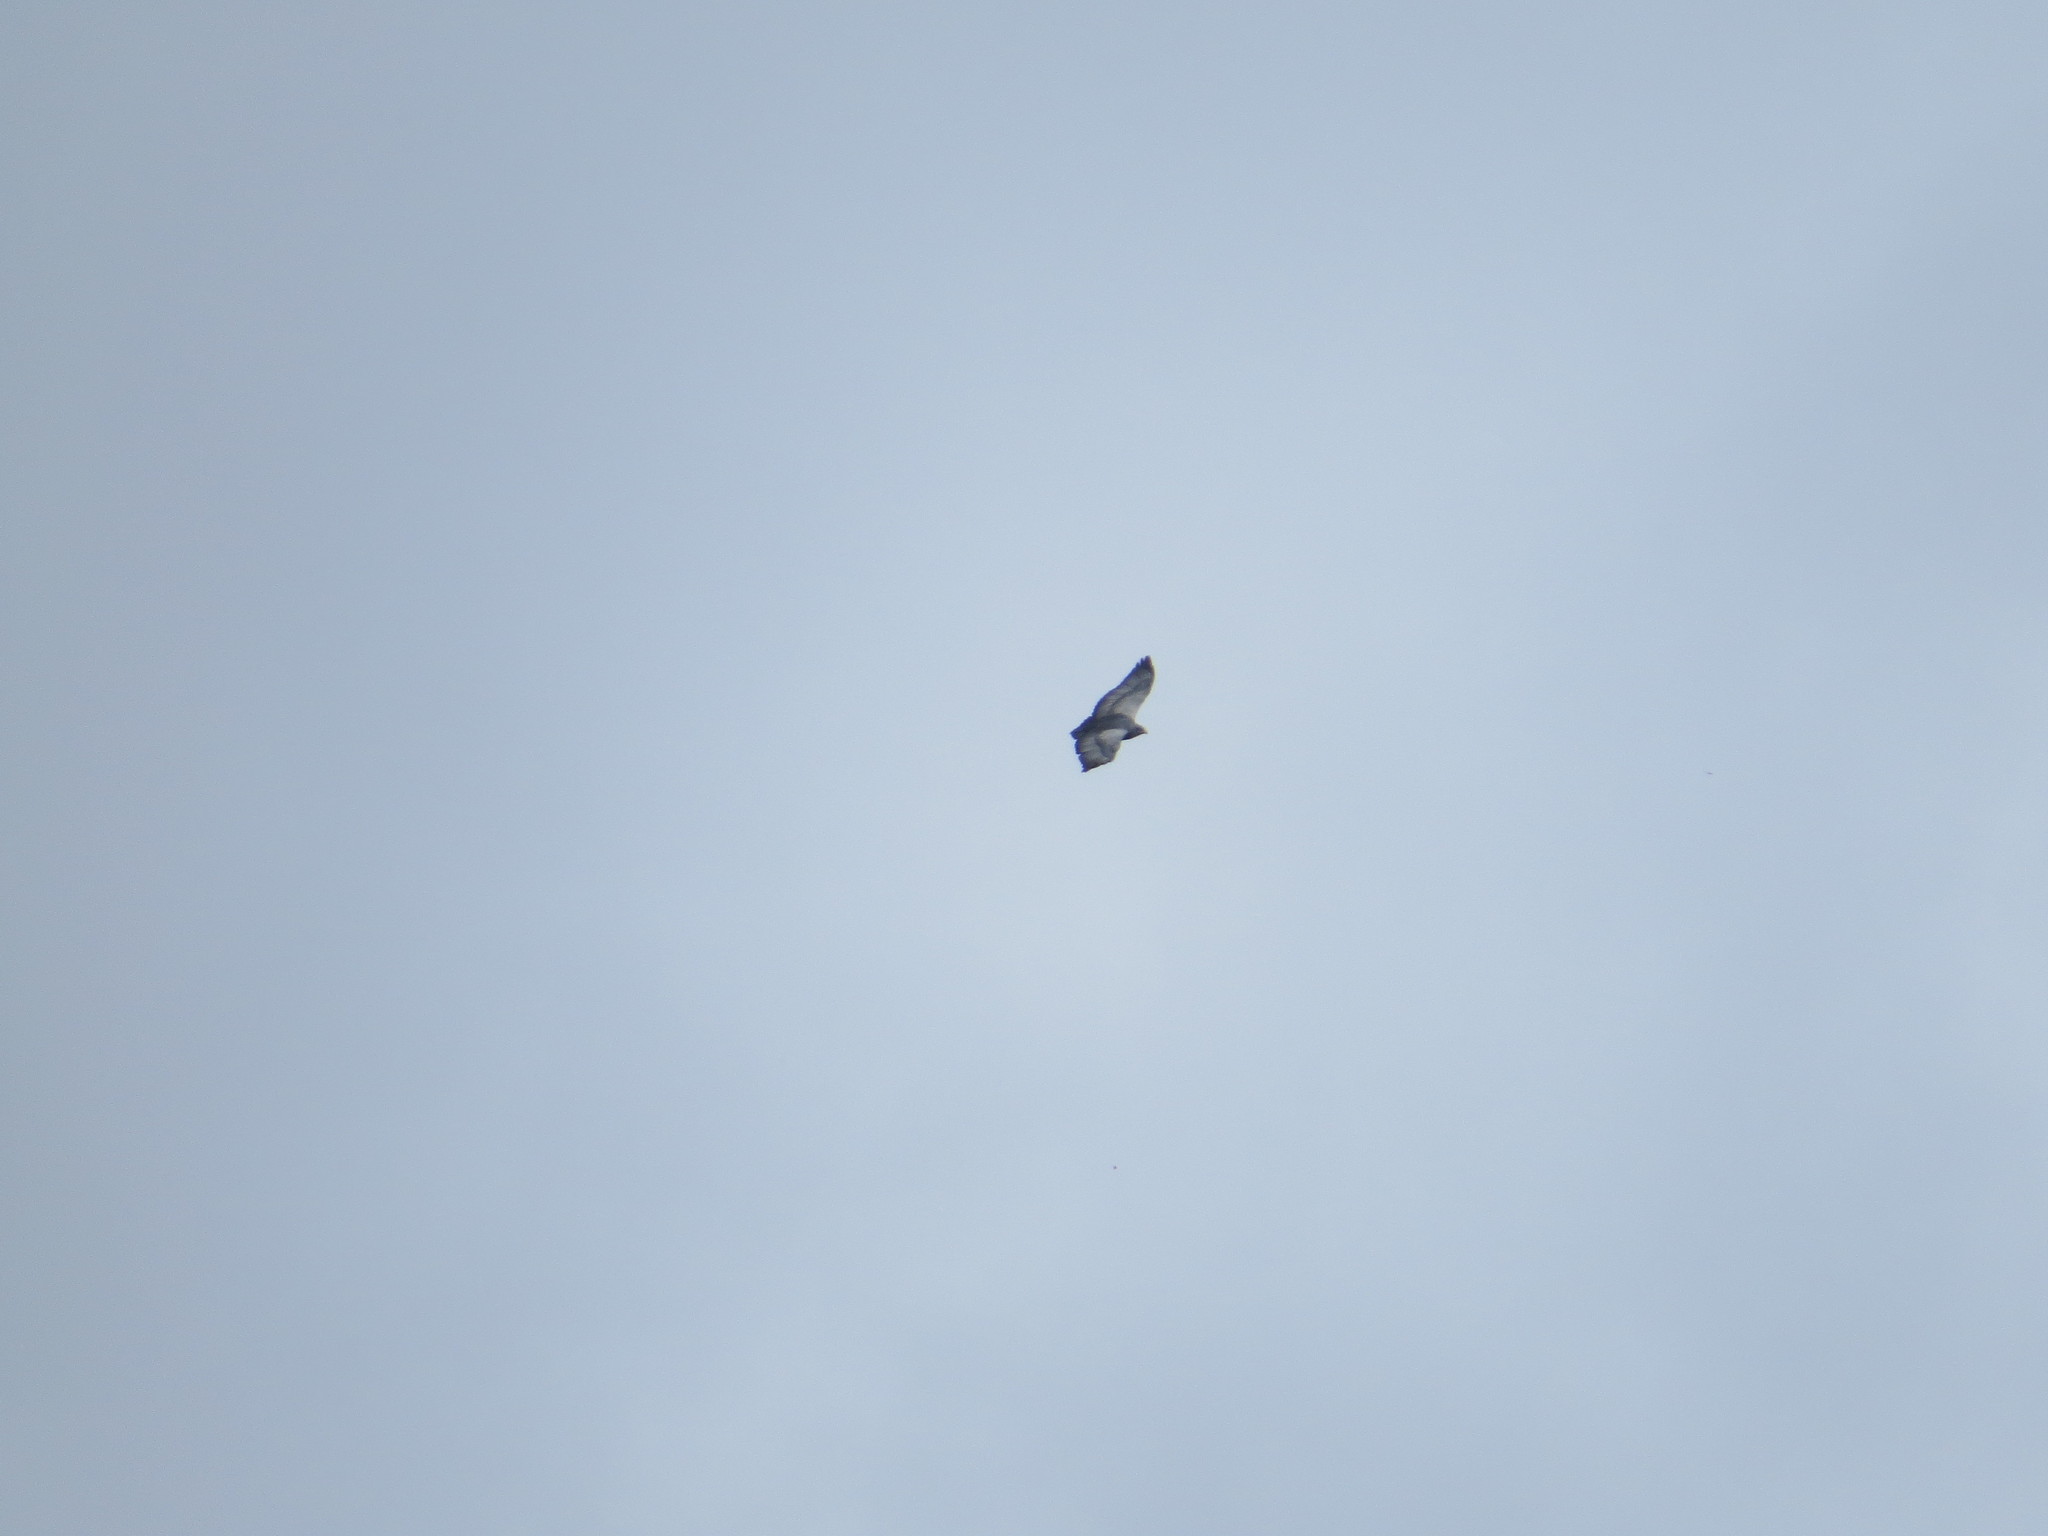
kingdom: Animalia
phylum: Chordata
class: Aves
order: Accipitriformes
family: Accipitridae
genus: Geranoaetus
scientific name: Geranoaetus melanoleucus
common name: Black-chested buzzard-eagle
